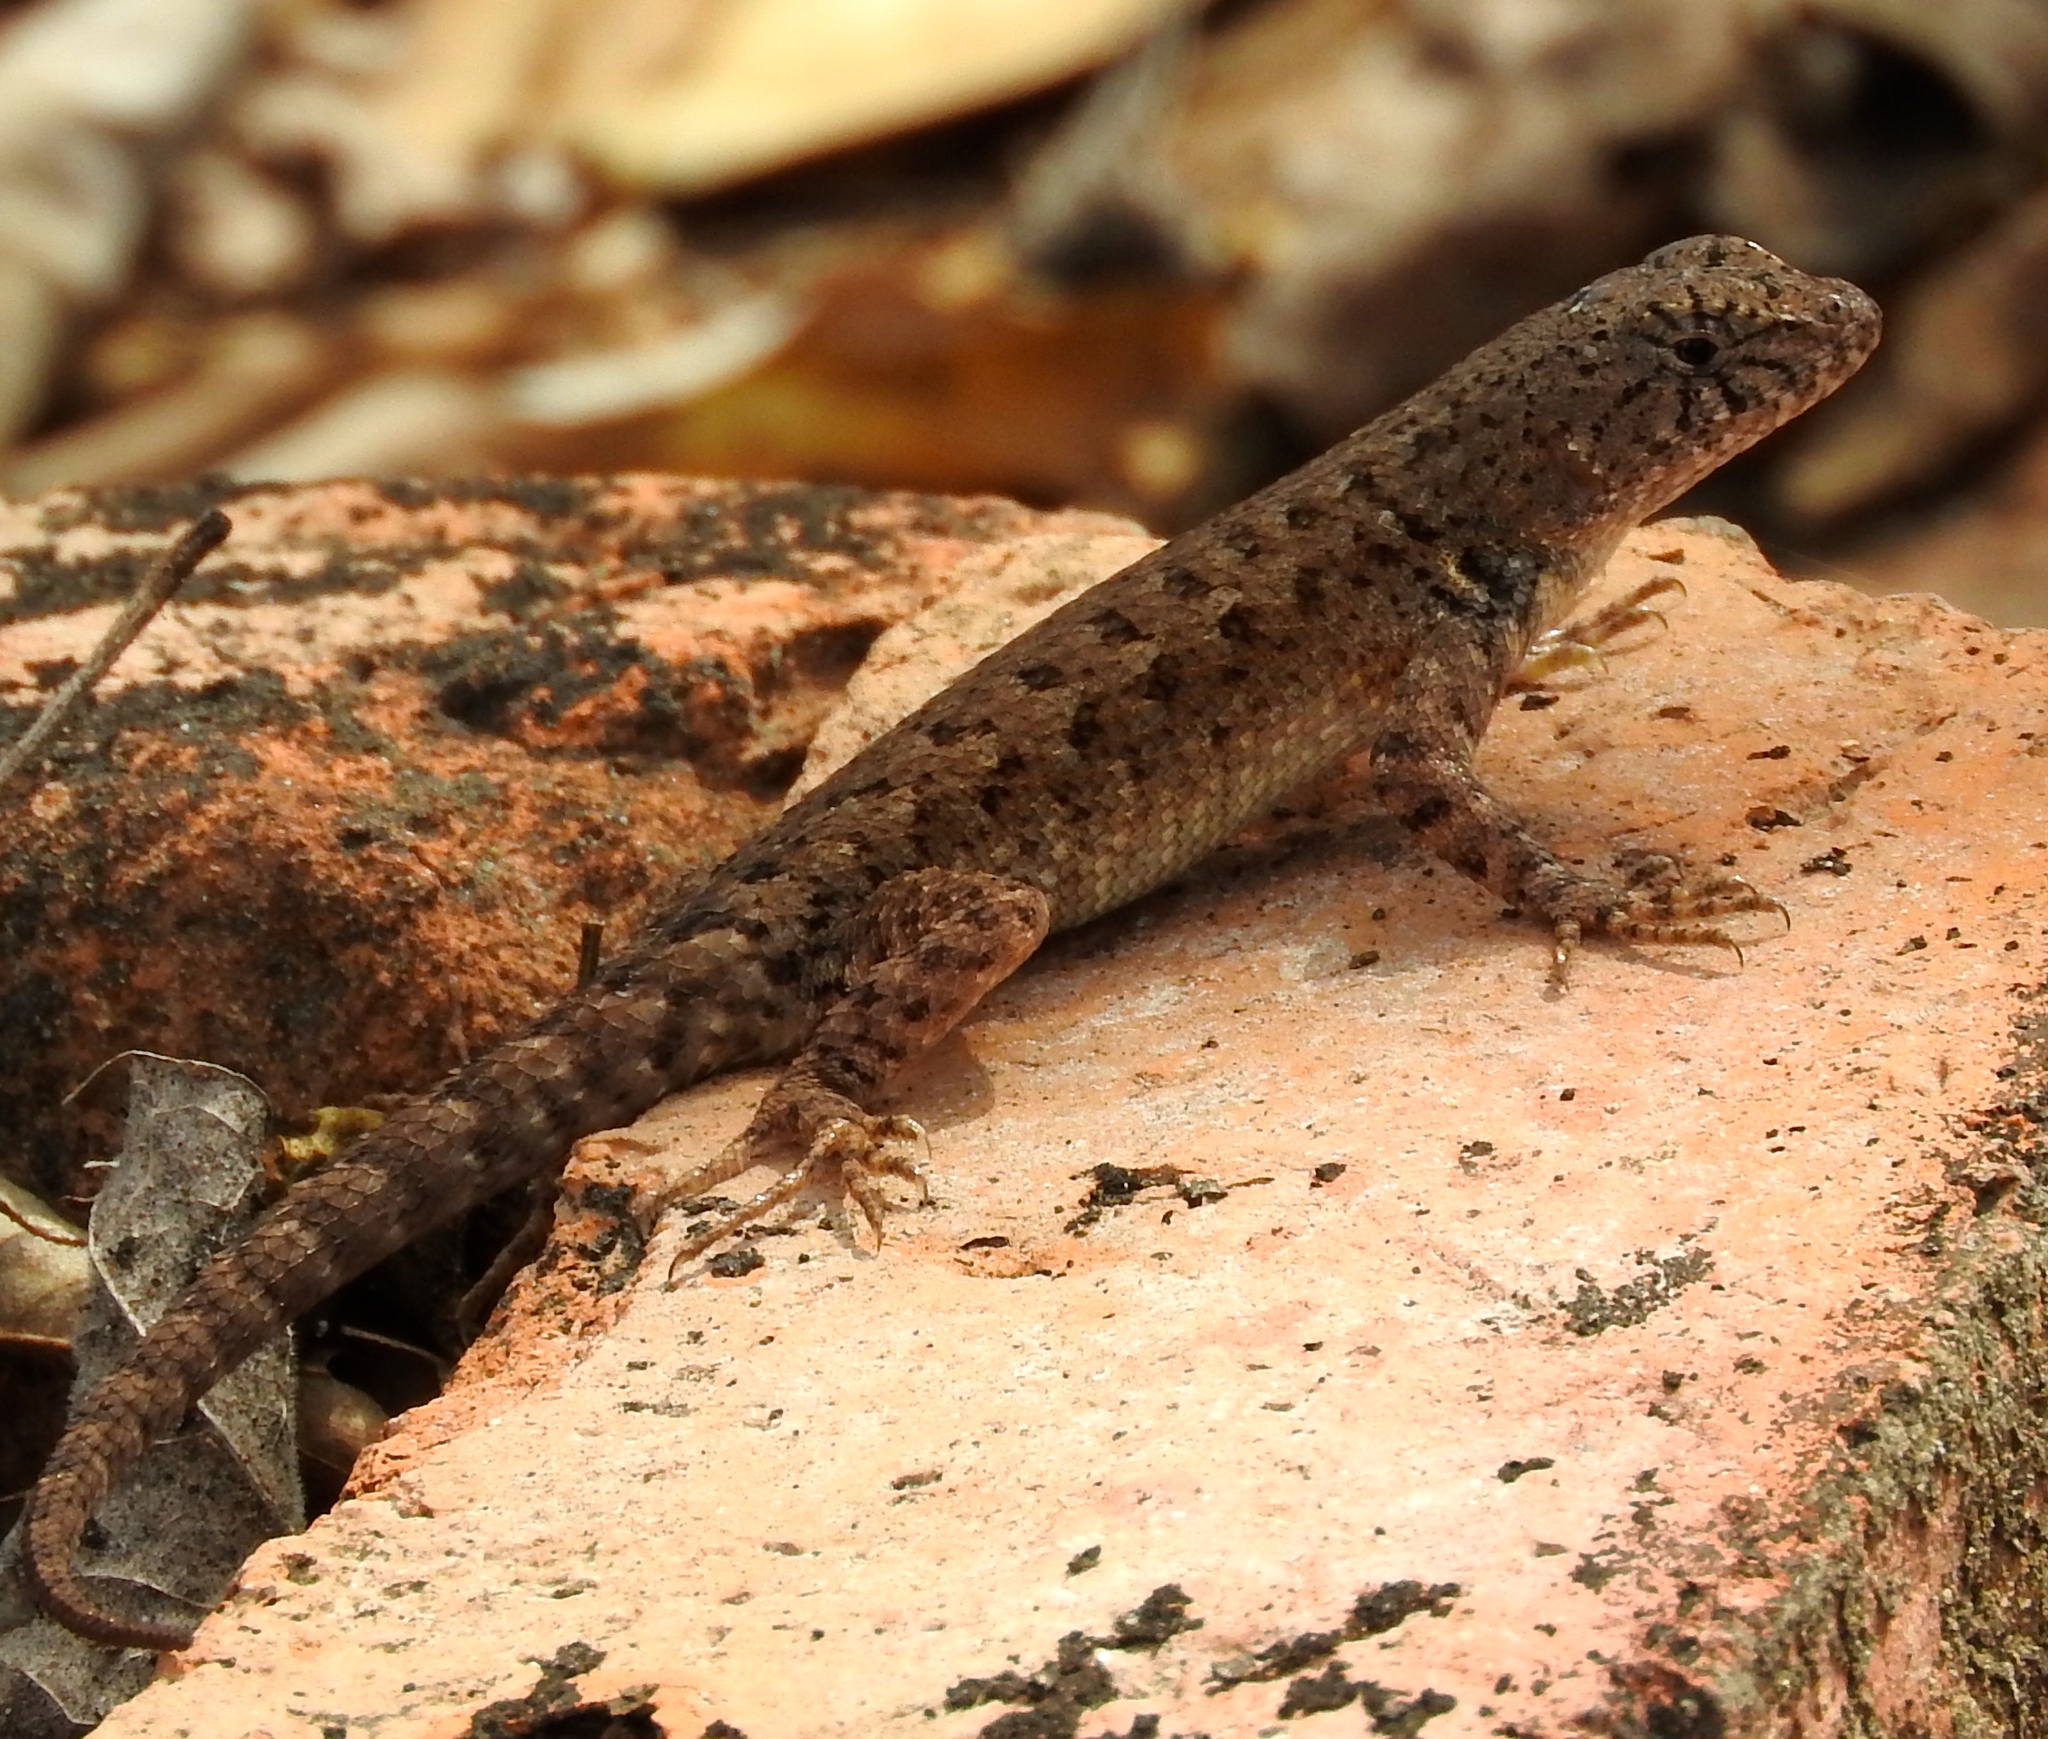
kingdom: Animalia
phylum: Chordata
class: Squamata
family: Phrynosomatidae
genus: Sceloporus
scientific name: Sceloporus nelsoni
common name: Nelson's spiny lizard
